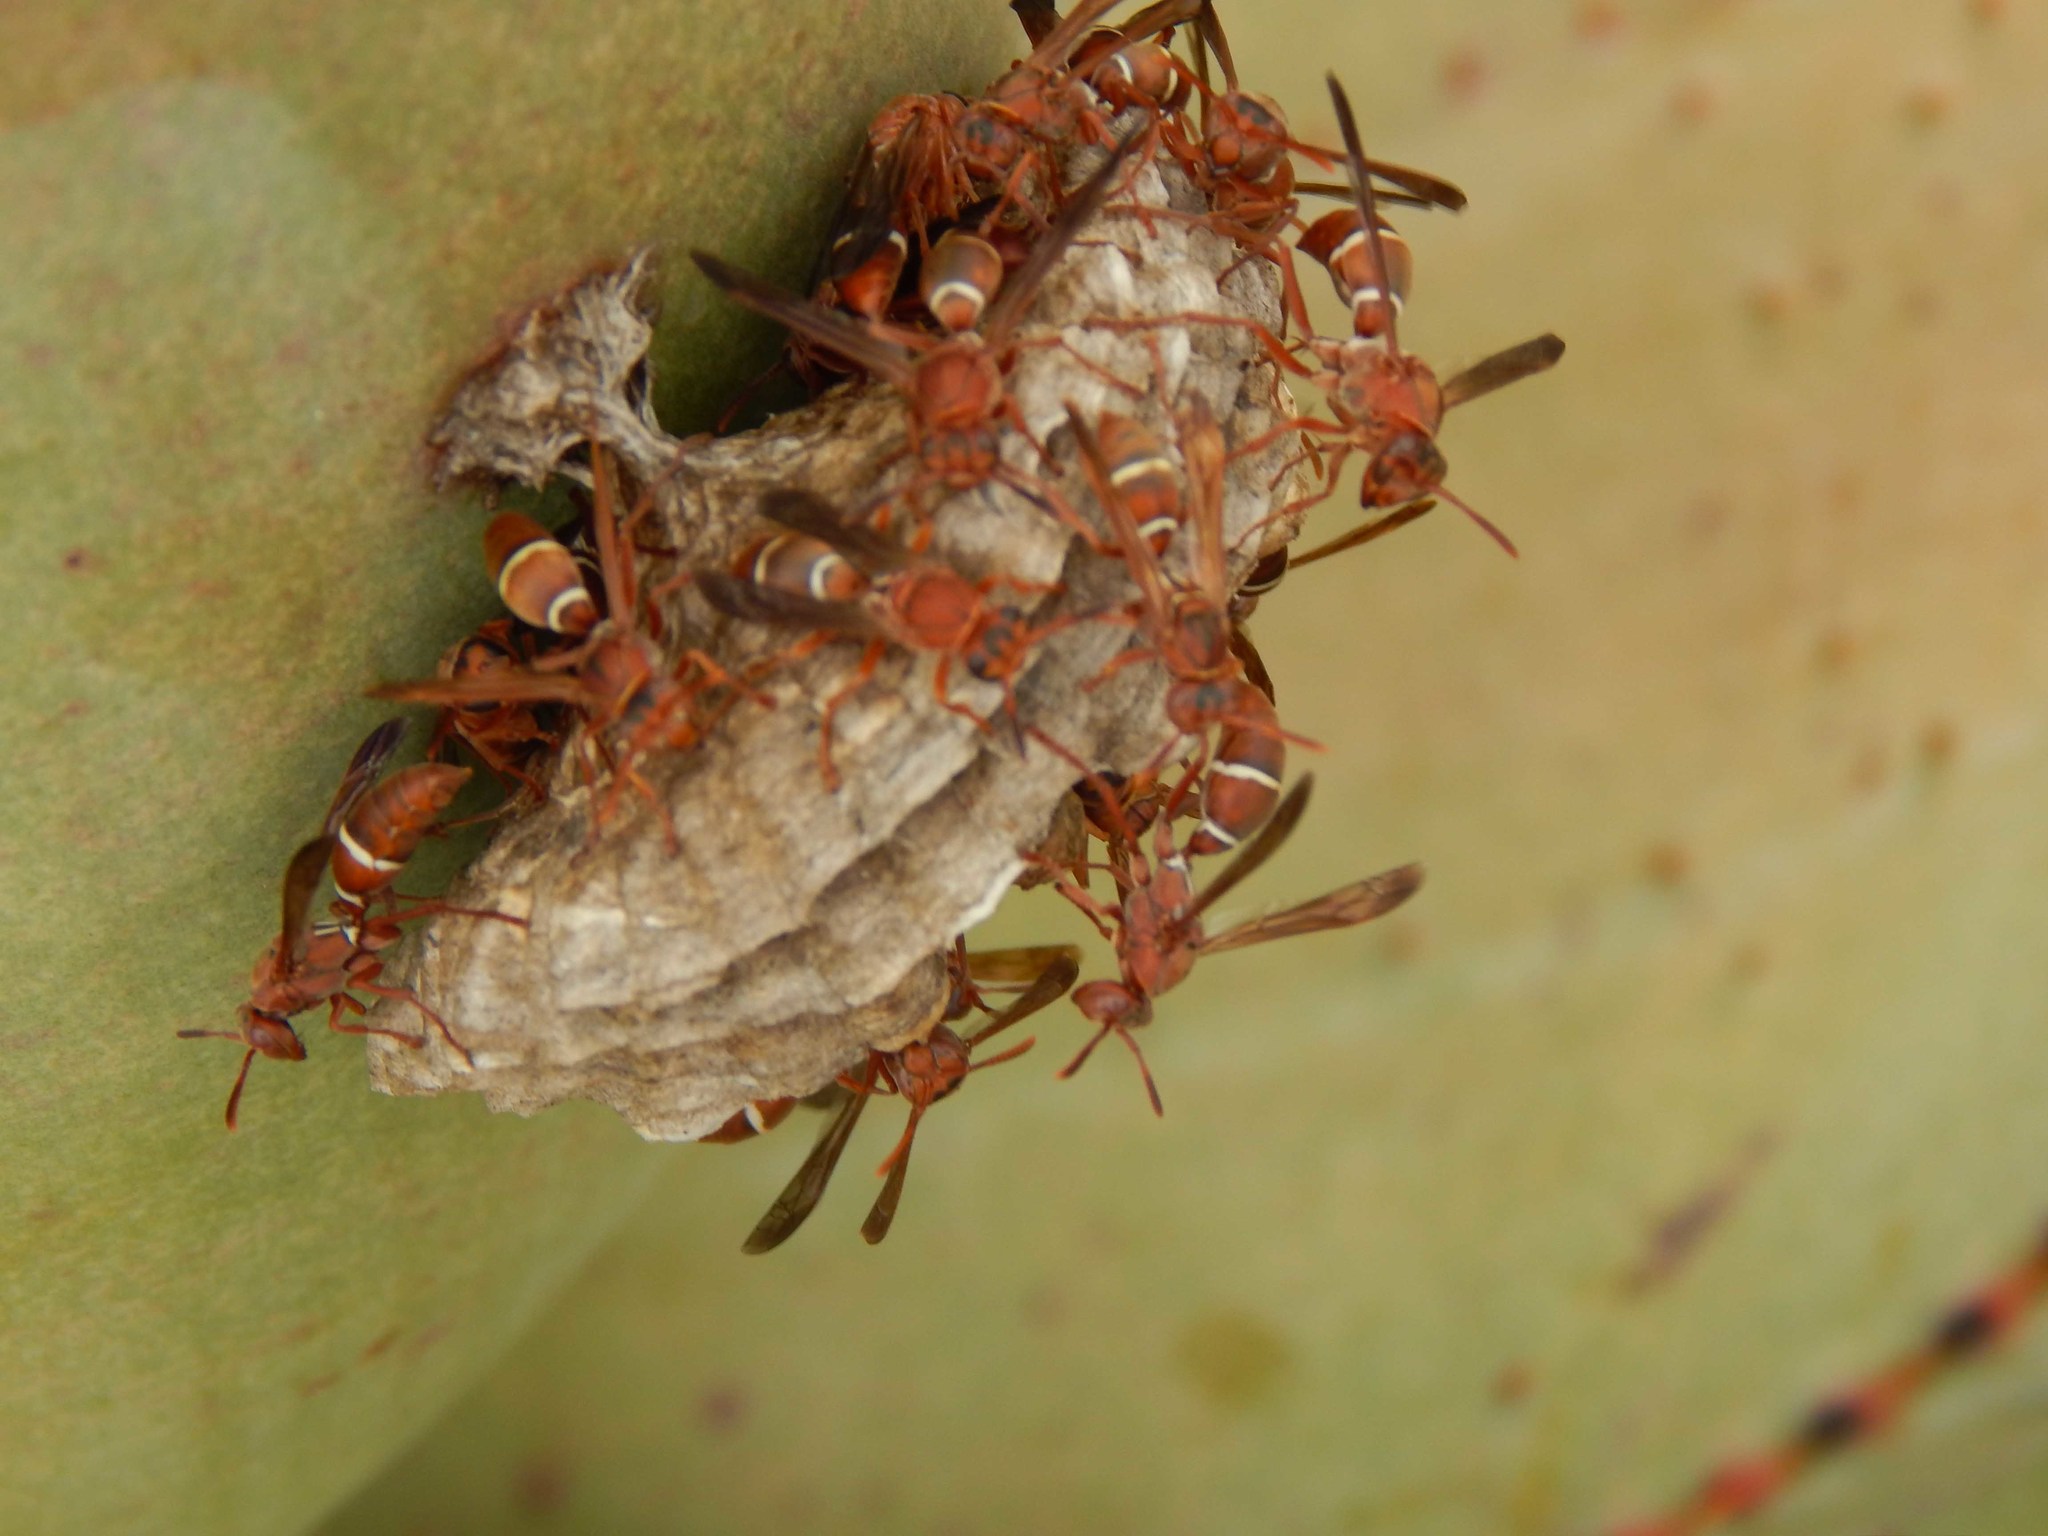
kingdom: Animalia
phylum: Arthropoda
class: Insecta
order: Hymenoptera
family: Eumenidae
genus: Polistes
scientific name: Polistes africanus
